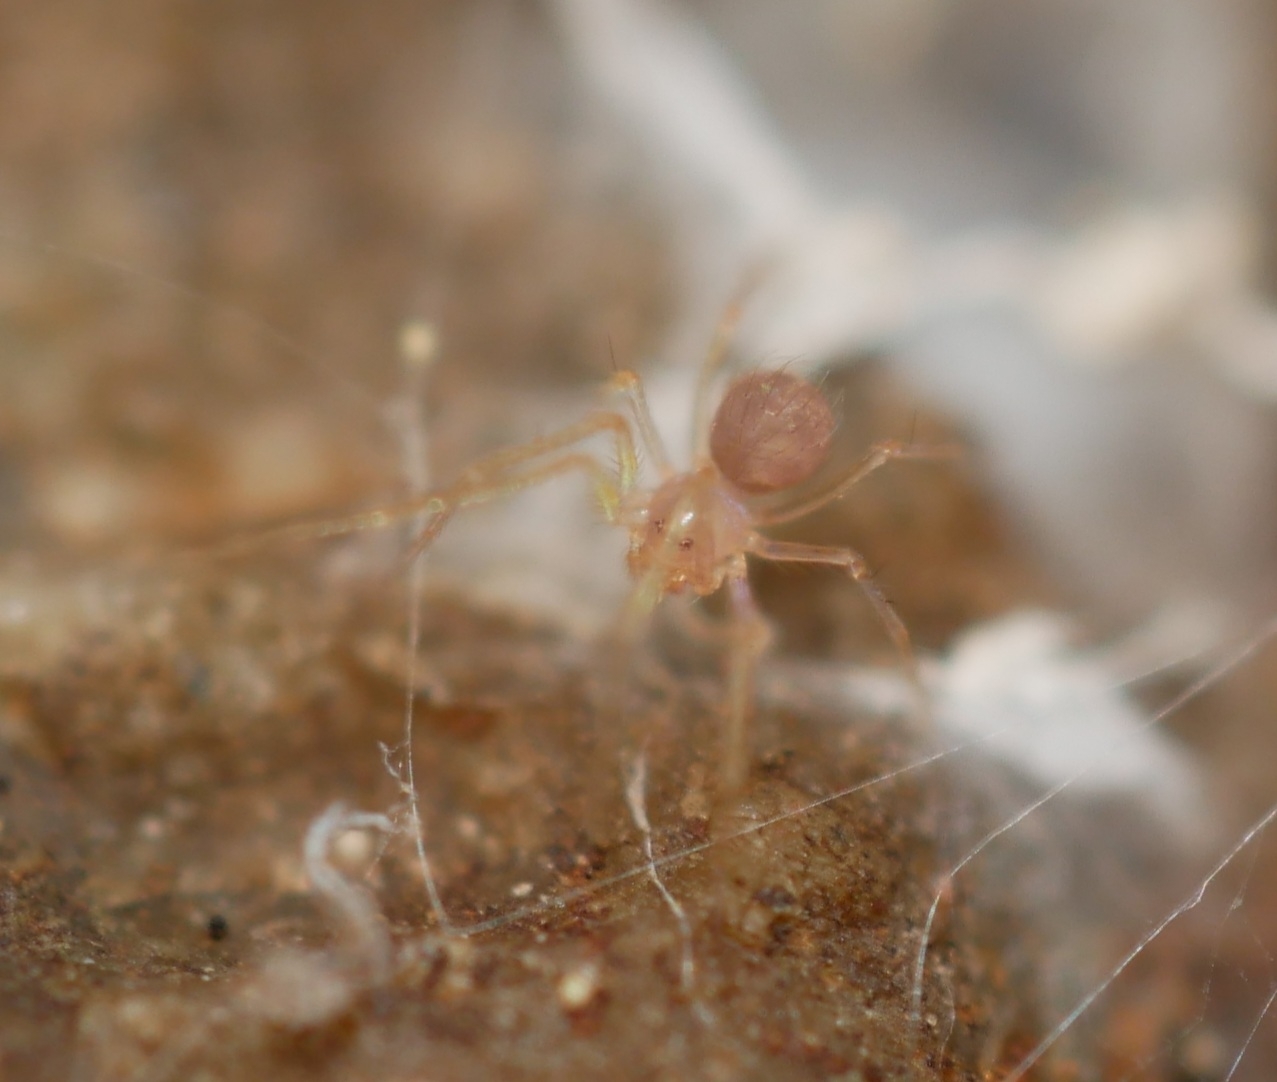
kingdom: Animalia
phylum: Arthropoda
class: Arachnida
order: Araneae
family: Telemidae
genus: Usofila
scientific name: Usofila flava
